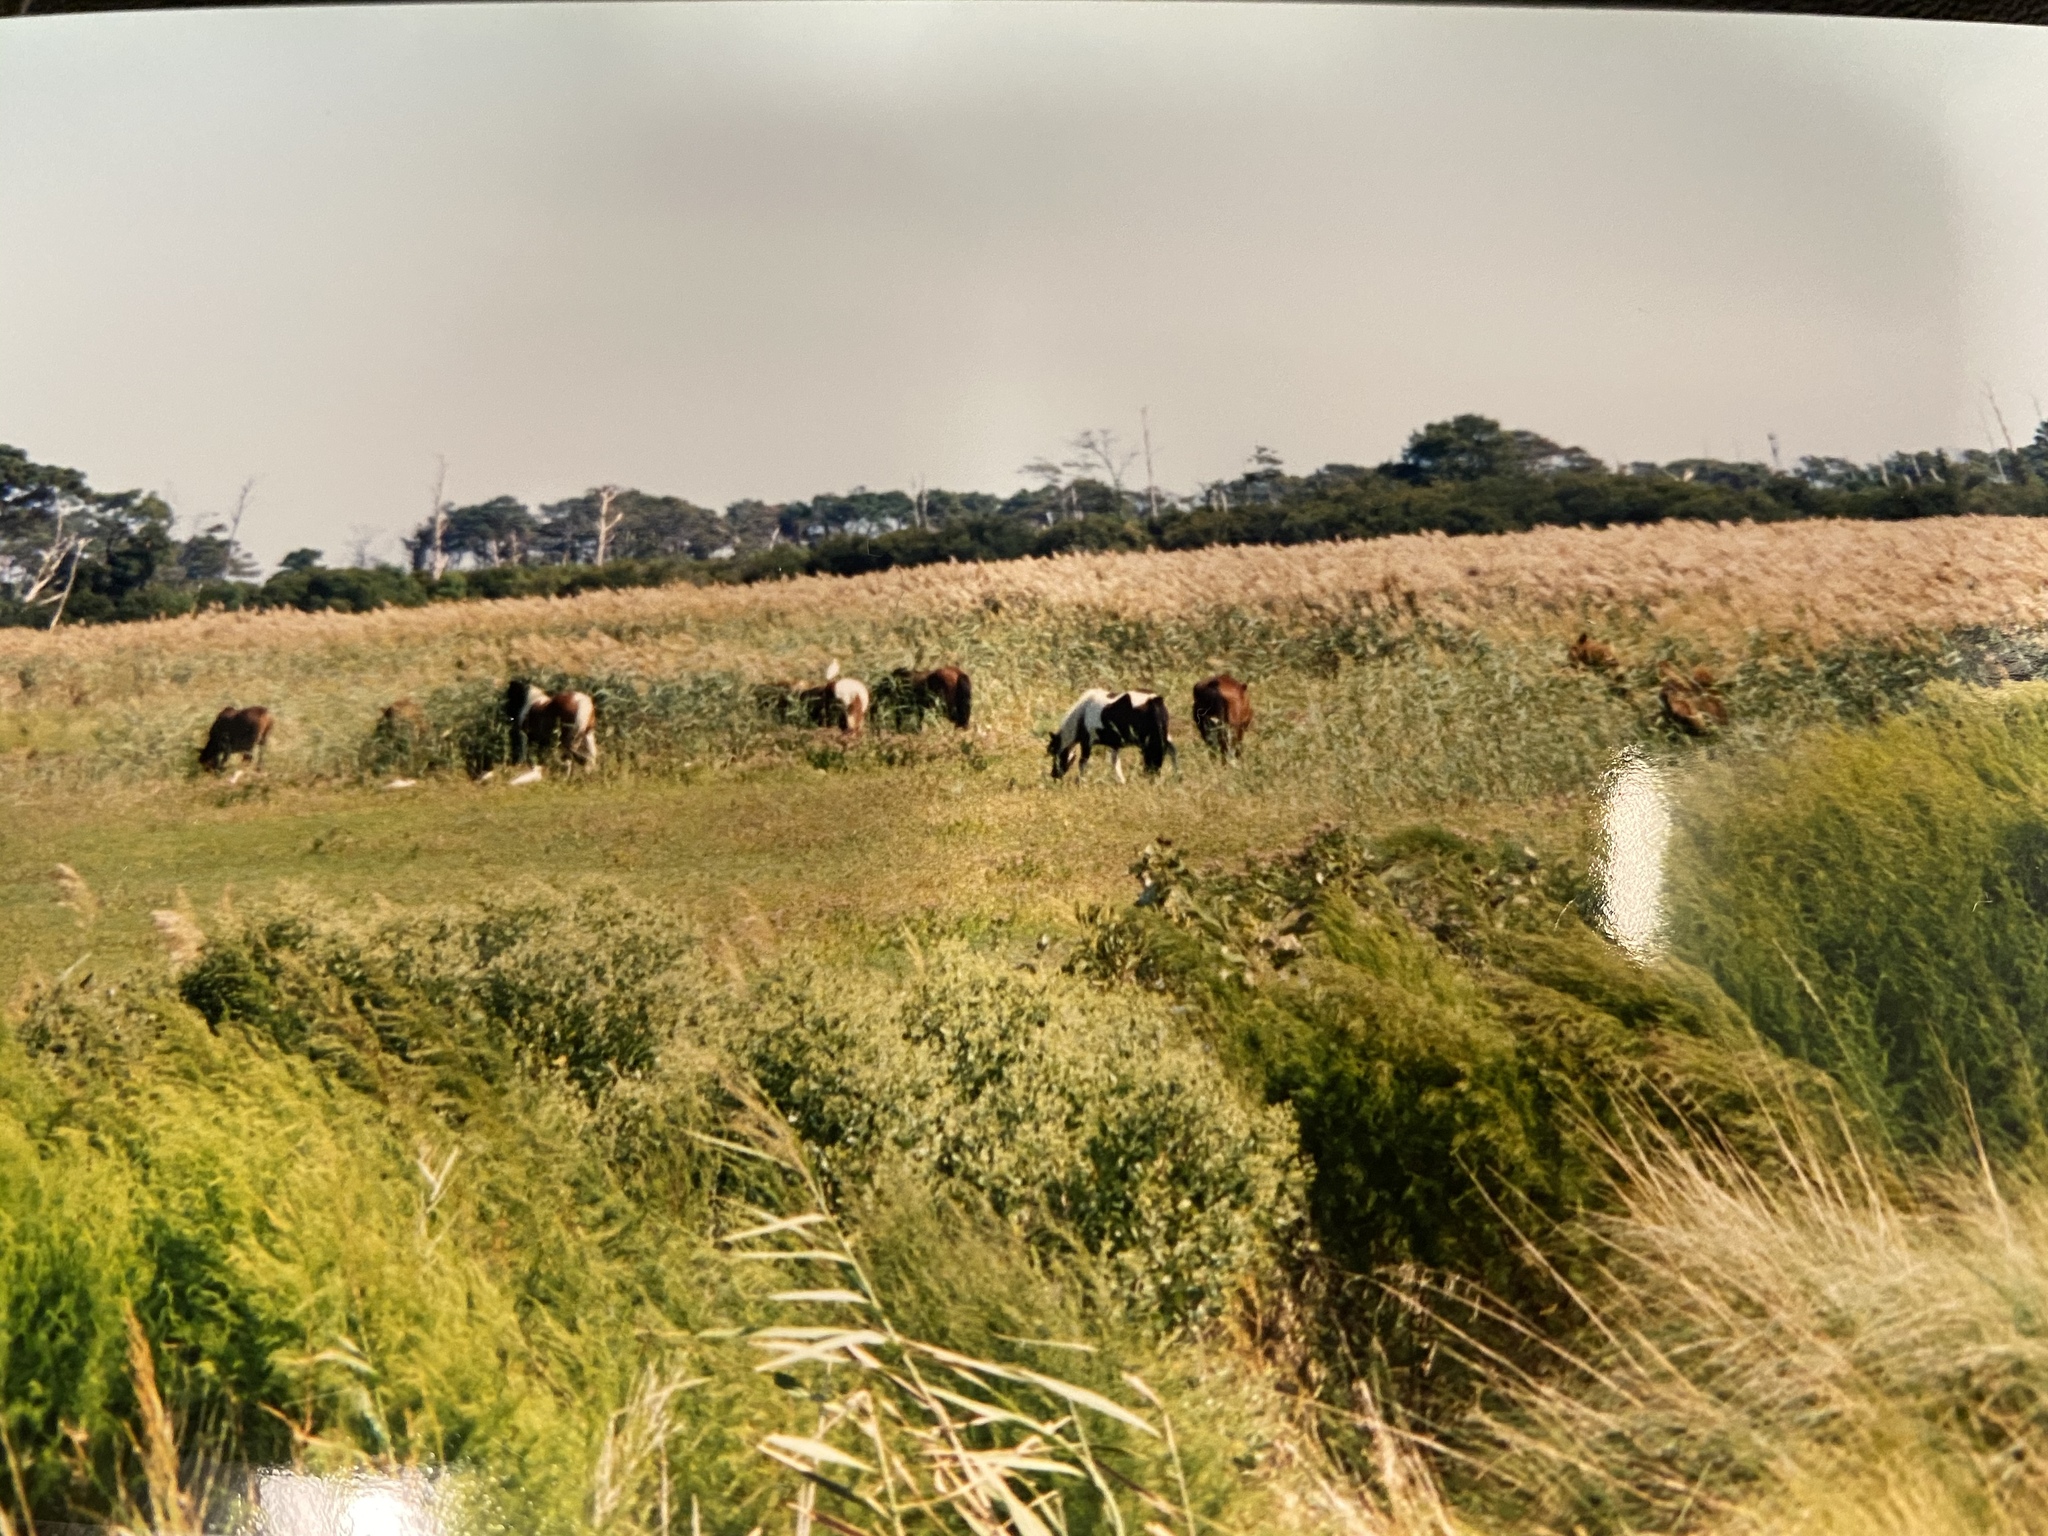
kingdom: Animalia
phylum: Chordata
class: Mammalia
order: Perissodactyla
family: Equidae
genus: Equus
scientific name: Equus caballus
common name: Horse
